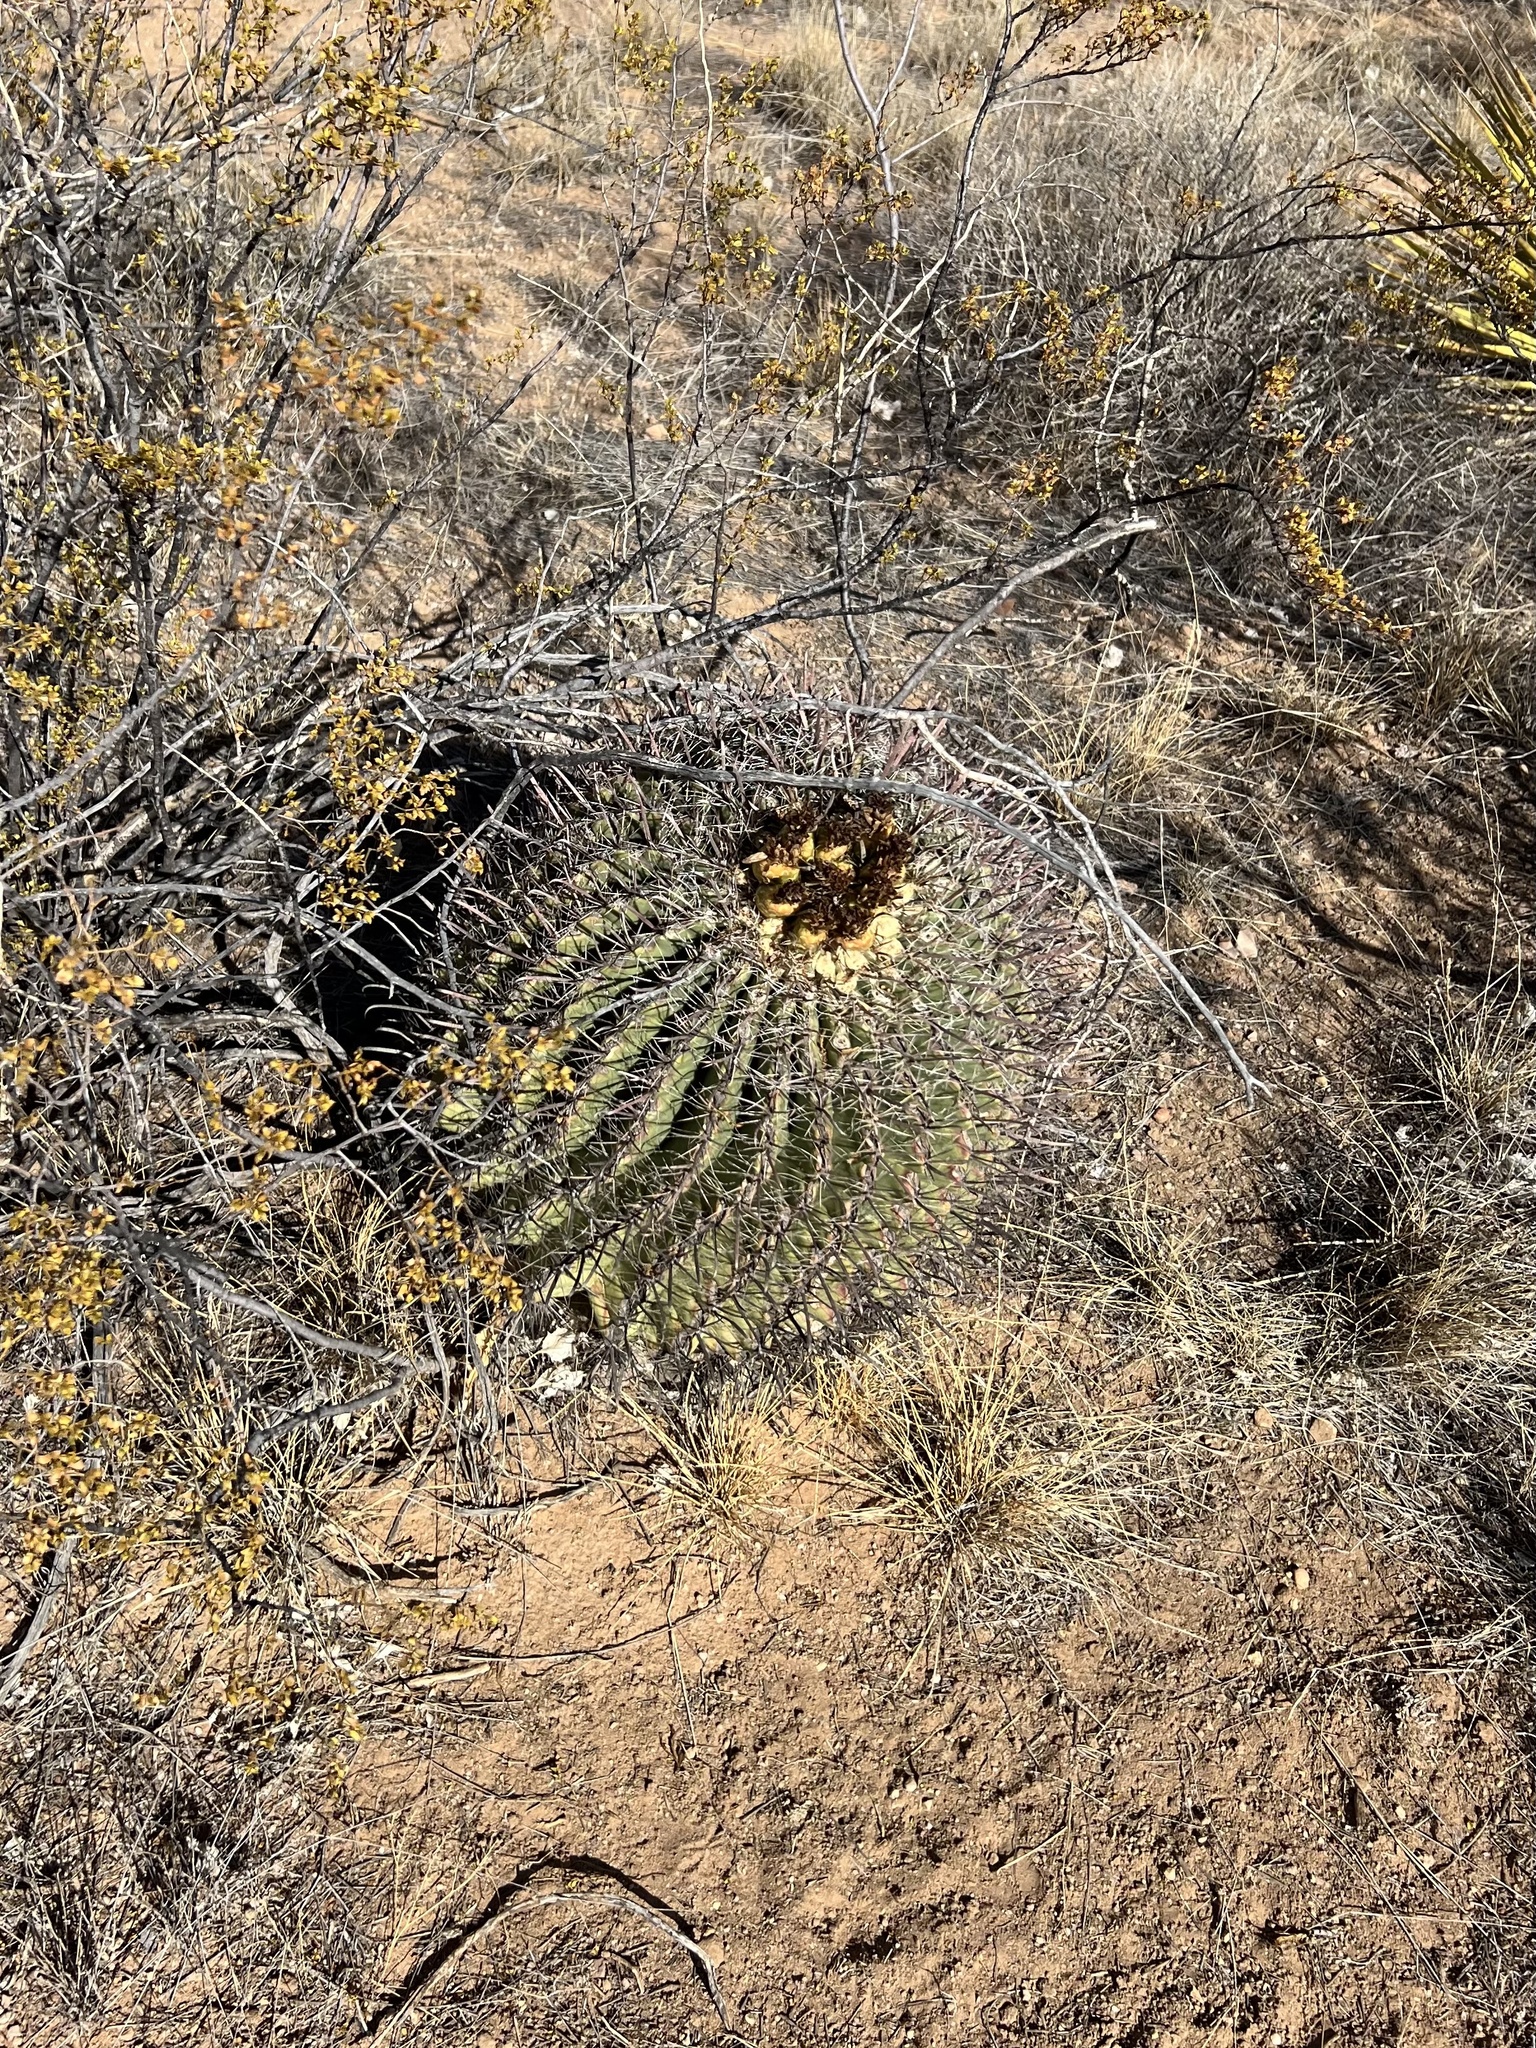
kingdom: Plantae
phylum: Tracheophyta
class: Magnoliopsida
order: Caryophyllales
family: Cactaceae
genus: Ferocactus
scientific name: Ferocactus wislizeni
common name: Candy barrel cactus
